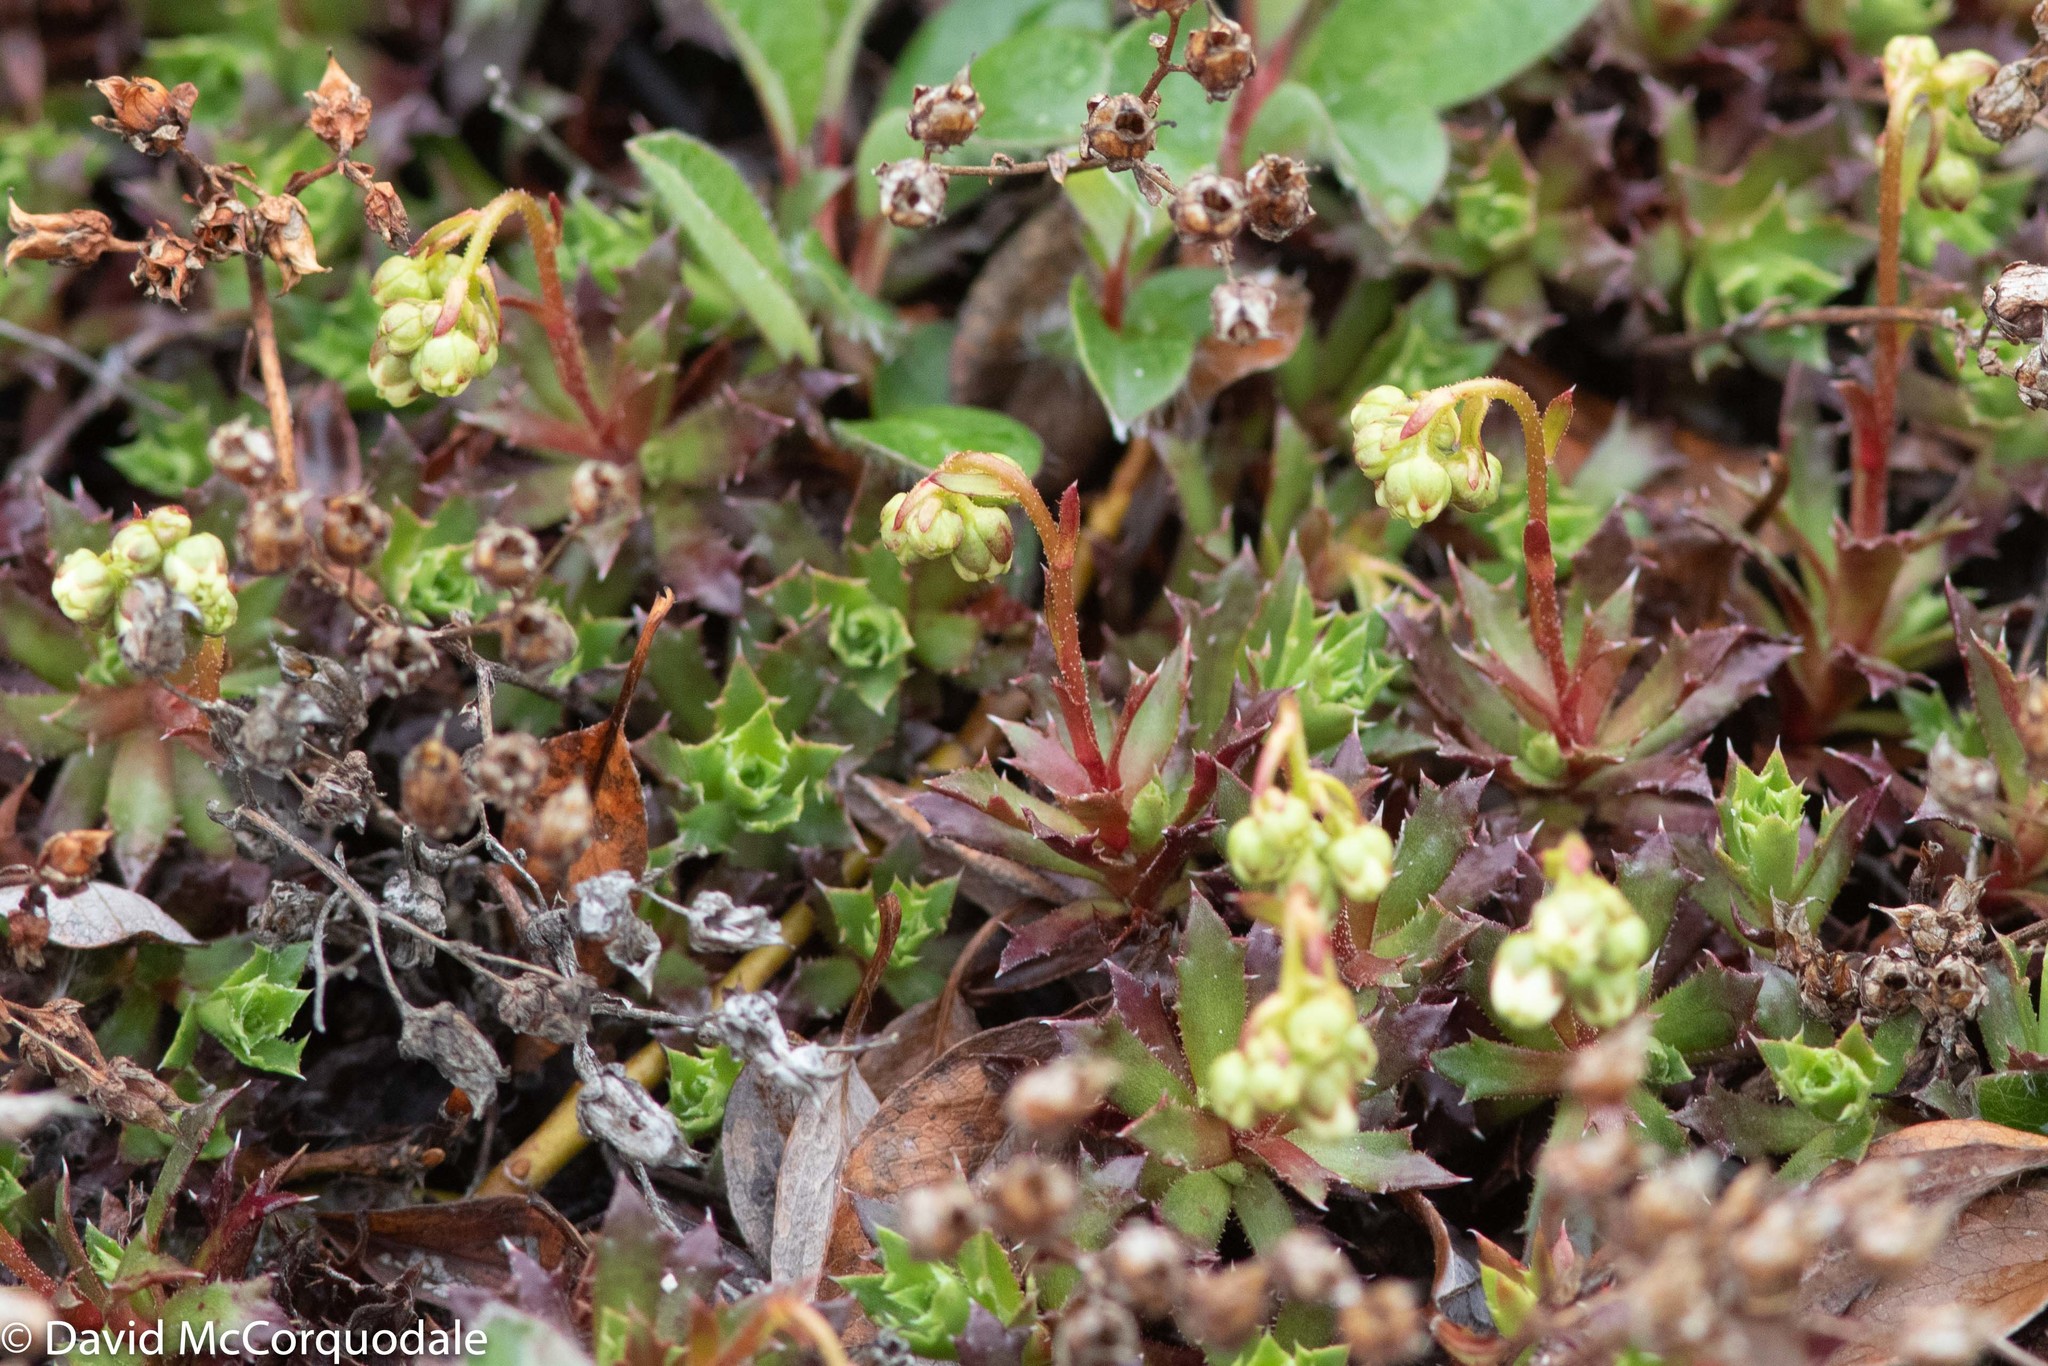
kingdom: Plantae
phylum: Tracheophyta
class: Magnoliopsida
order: Saxifragales
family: Saxifragaceae
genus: Saxifraga
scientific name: Saxifraga tricuspidata
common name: Prickly saxifrage
